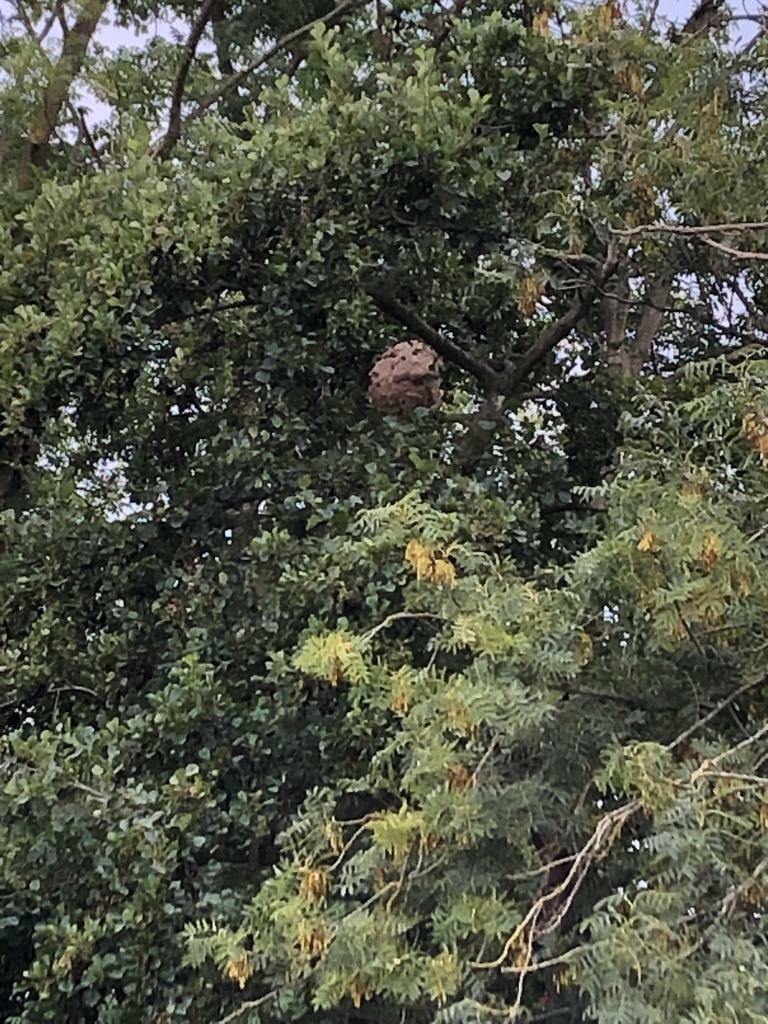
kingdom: Animalia
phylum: Arthropoda
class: Insecta
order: Hymenoptera
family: Vespidae
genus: Vespa
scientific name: Vespa velutina
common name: Asian hornet
